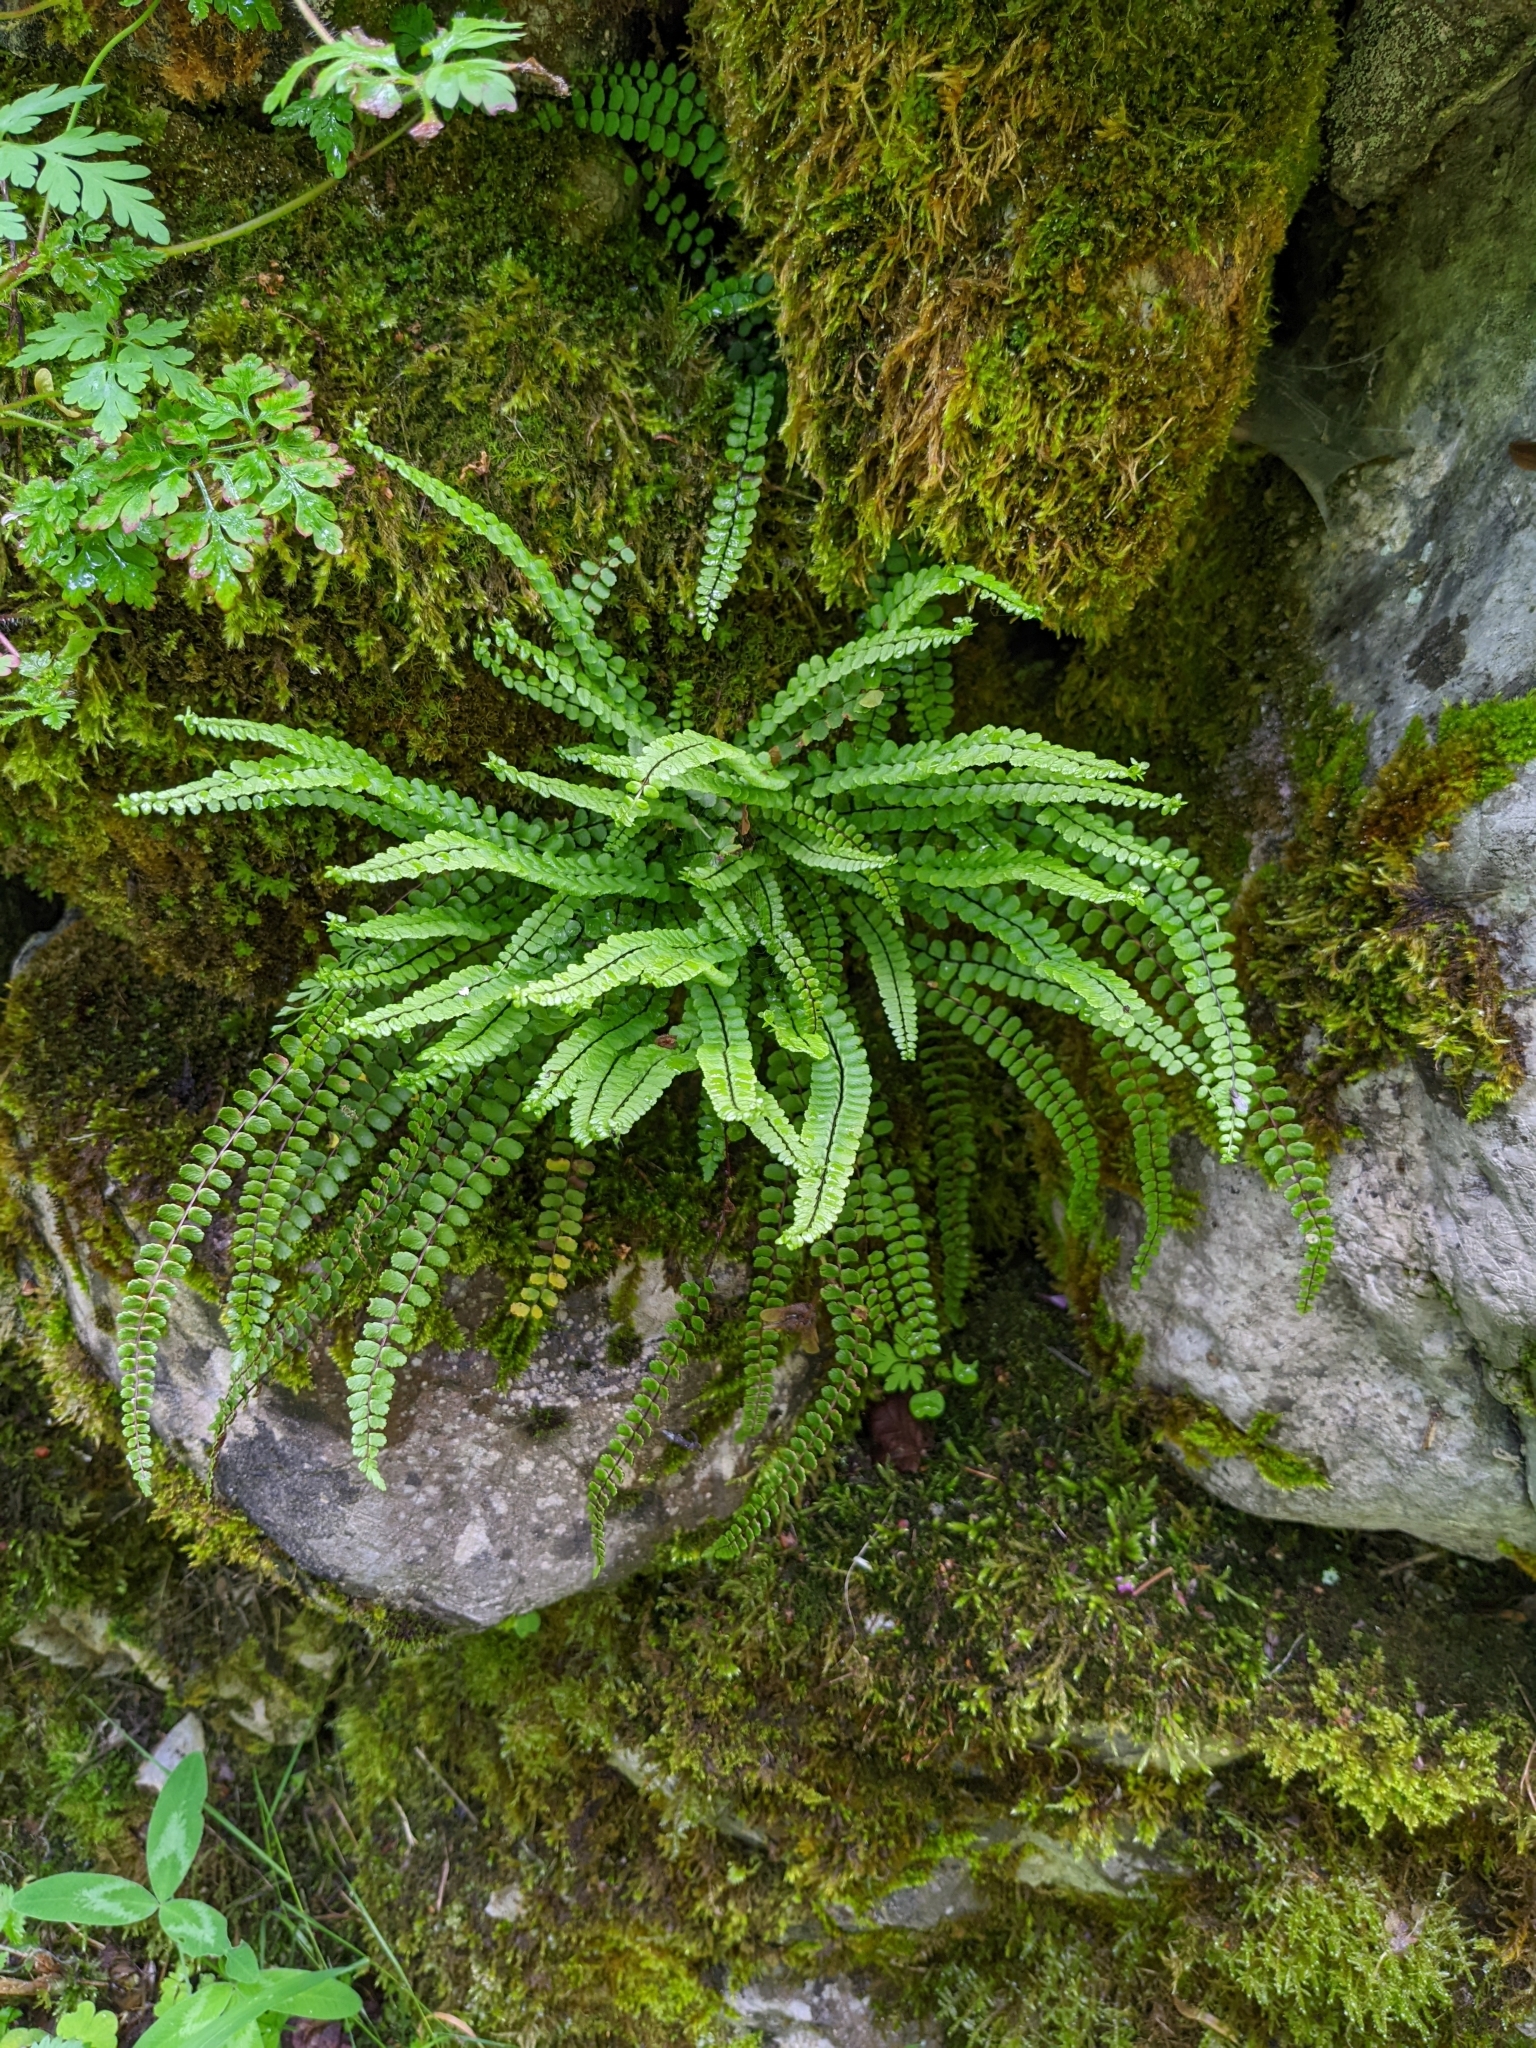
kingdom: Plantae
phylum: Tracheophyta
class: Polypodiopsida
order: Polypodiales
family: Aspleniaceae
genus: Asplenium
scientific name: Asplenium trichomanes
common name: Maidenhair spleenwort
